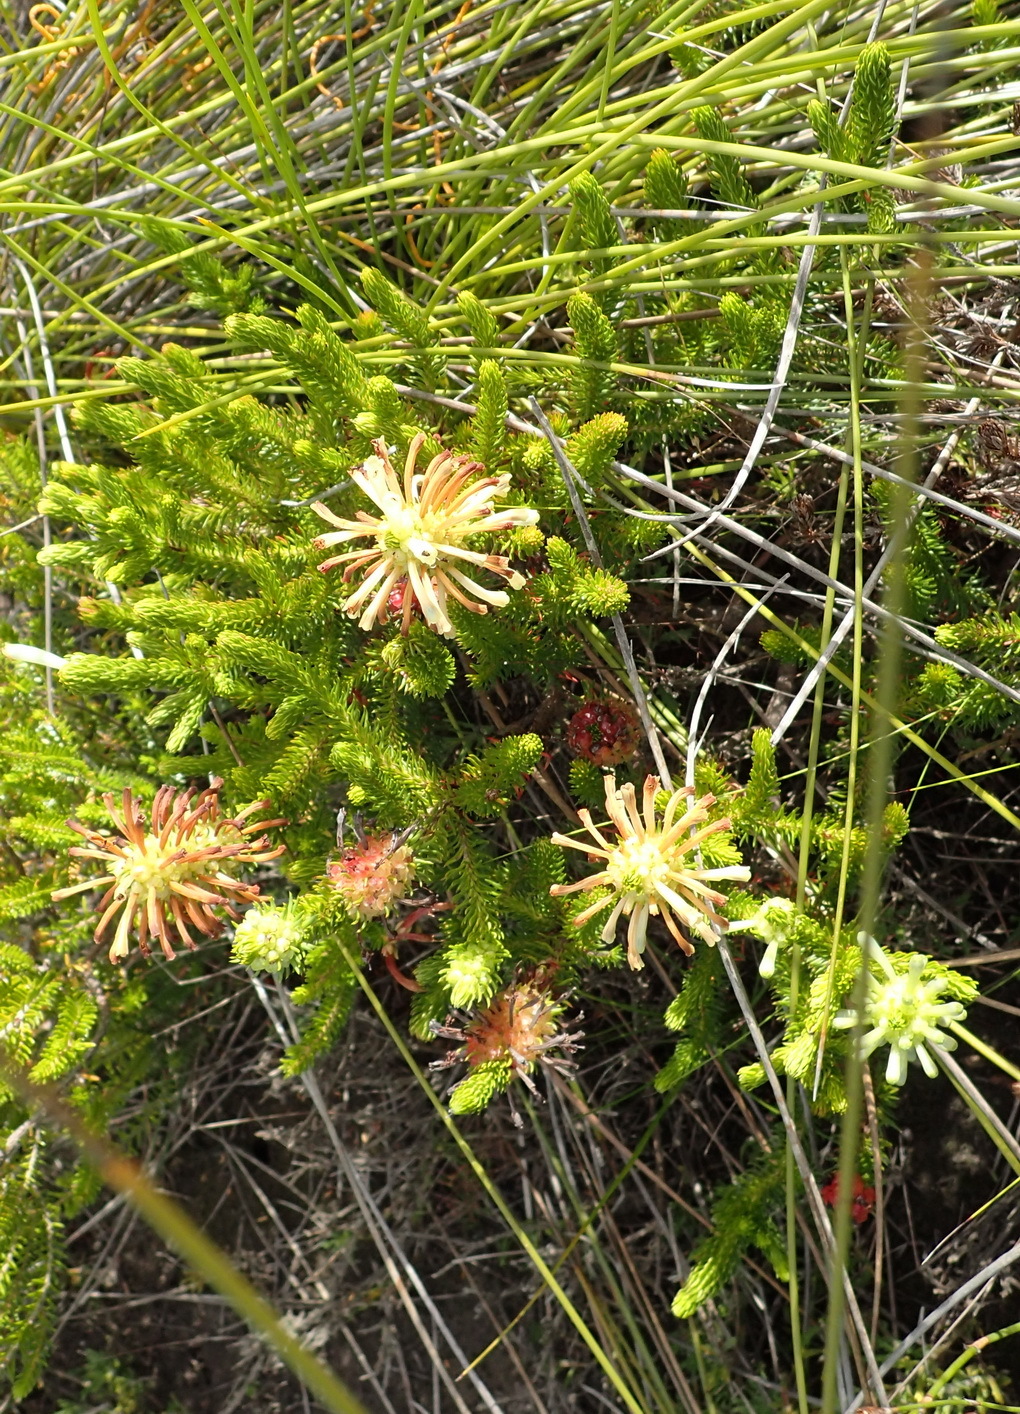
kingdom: Plantae
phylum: Tracheophyta
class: Magnoliopsida
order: Ericales
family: Ericaceae
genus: Erica
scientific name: Erica sessiliflora
